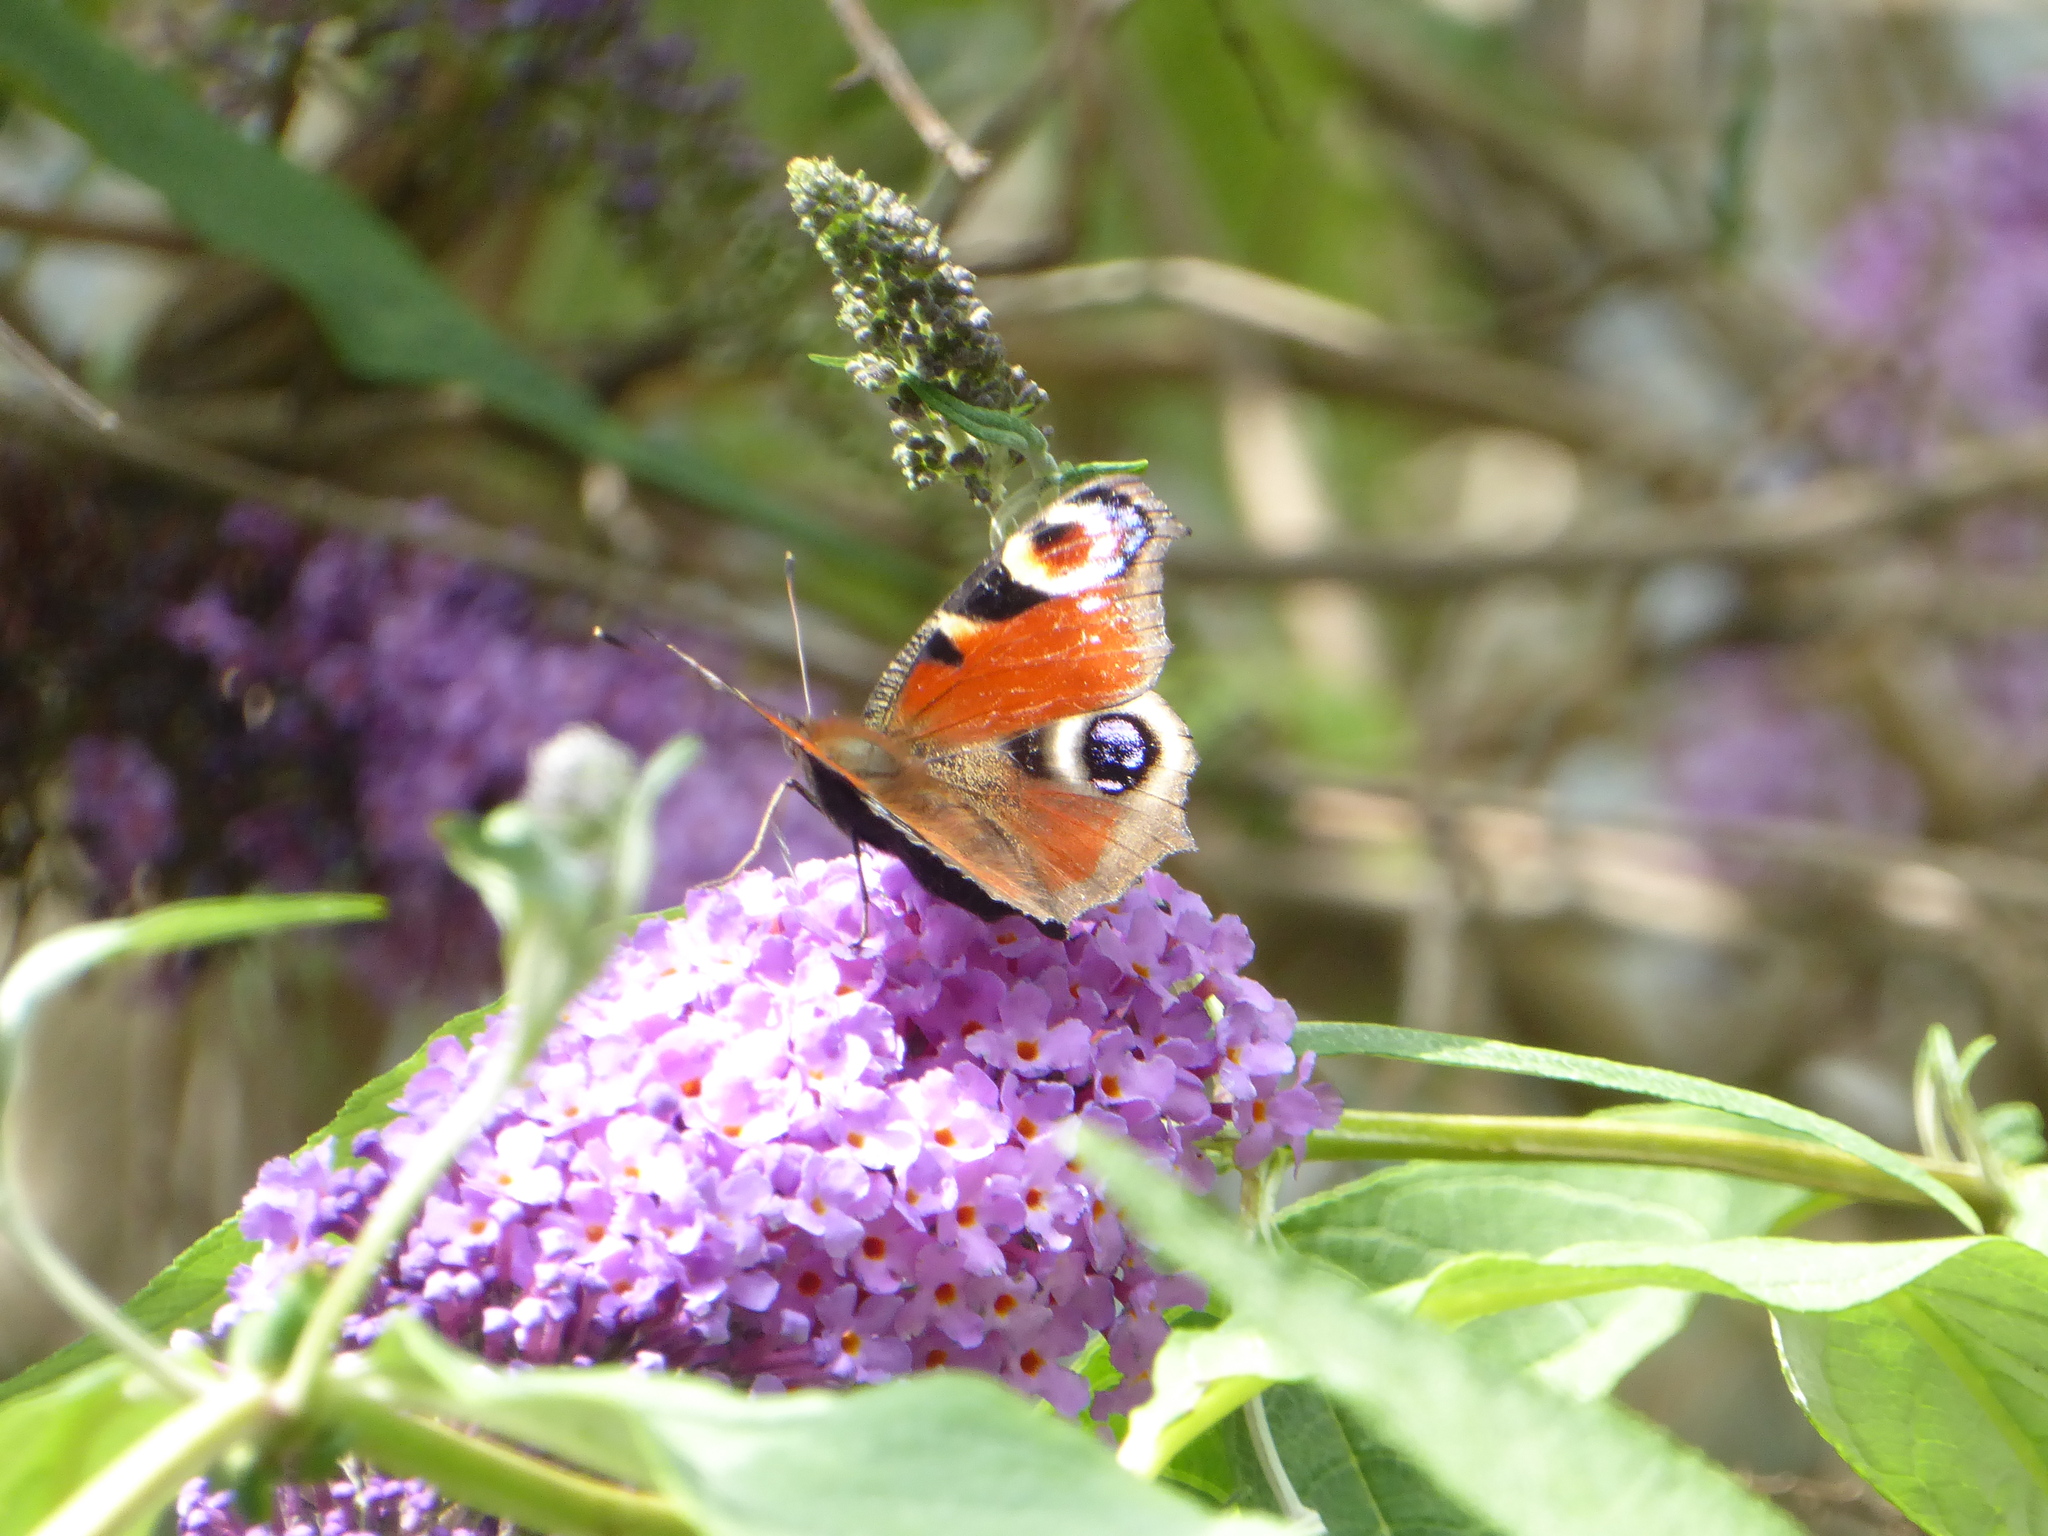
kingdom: Animalia
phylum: Arthropoda
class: Insecta
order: Lepidoptera
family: Nymphalidae
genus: Aglais
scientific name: Aglais io
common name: Peacock
